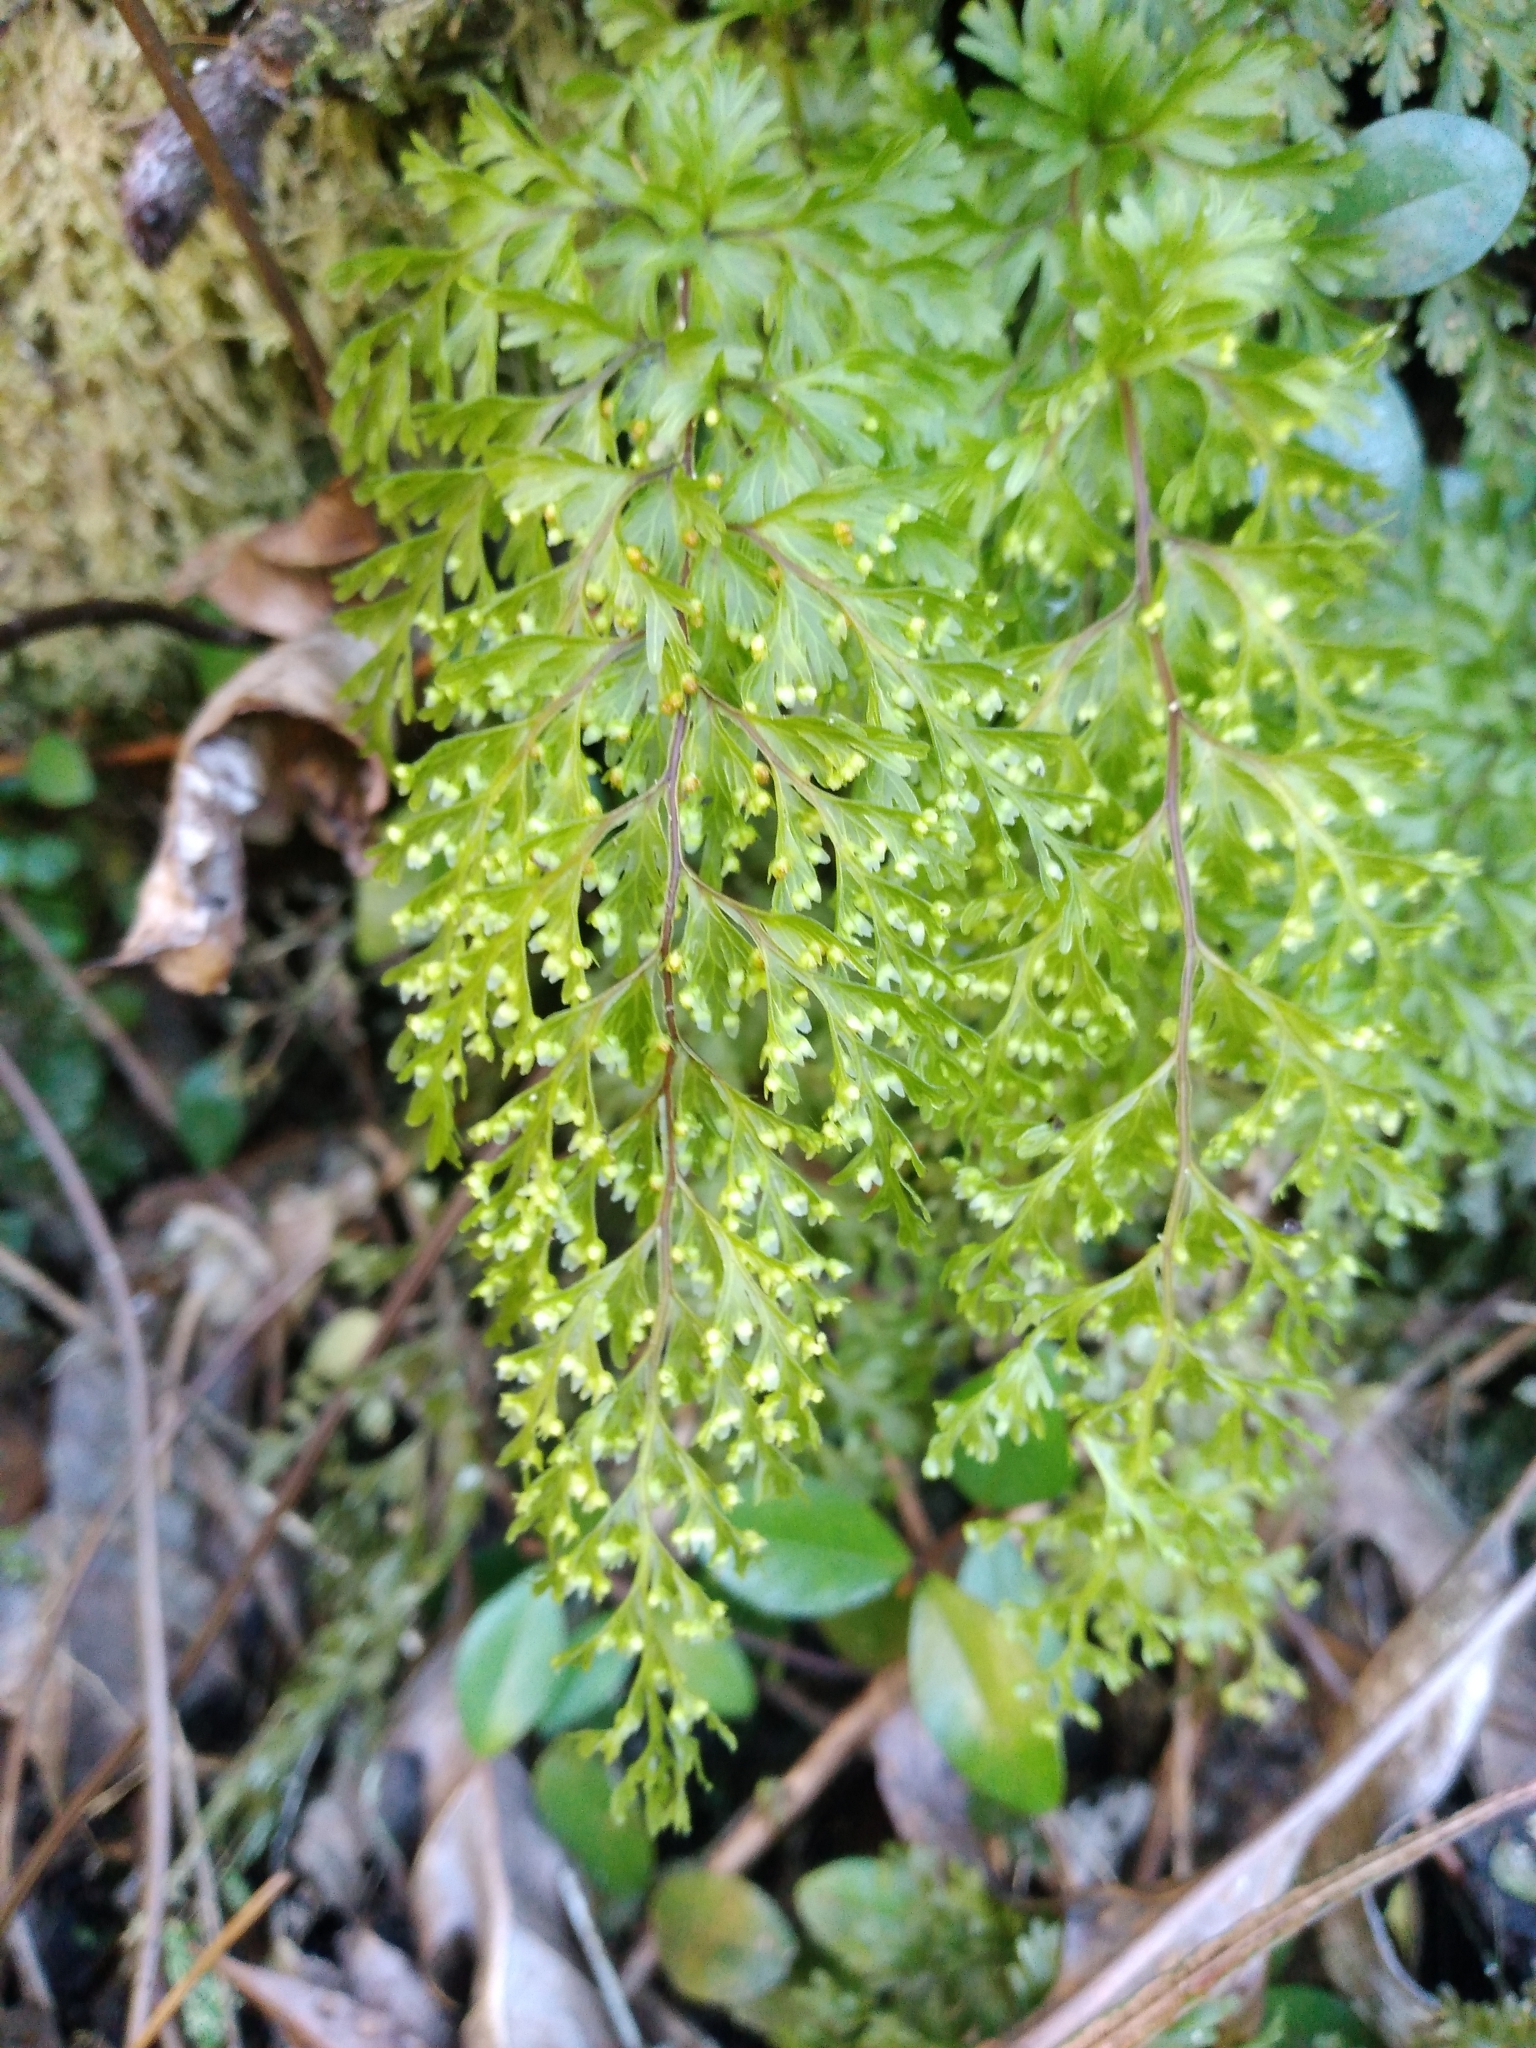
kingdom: Plantae
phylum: Tracheophyta
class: Polypodiopsida
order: Hymenophyllales
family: Hymenophyllaceae
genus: Hymenophyllum
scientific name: Hymenophyllum demissum
